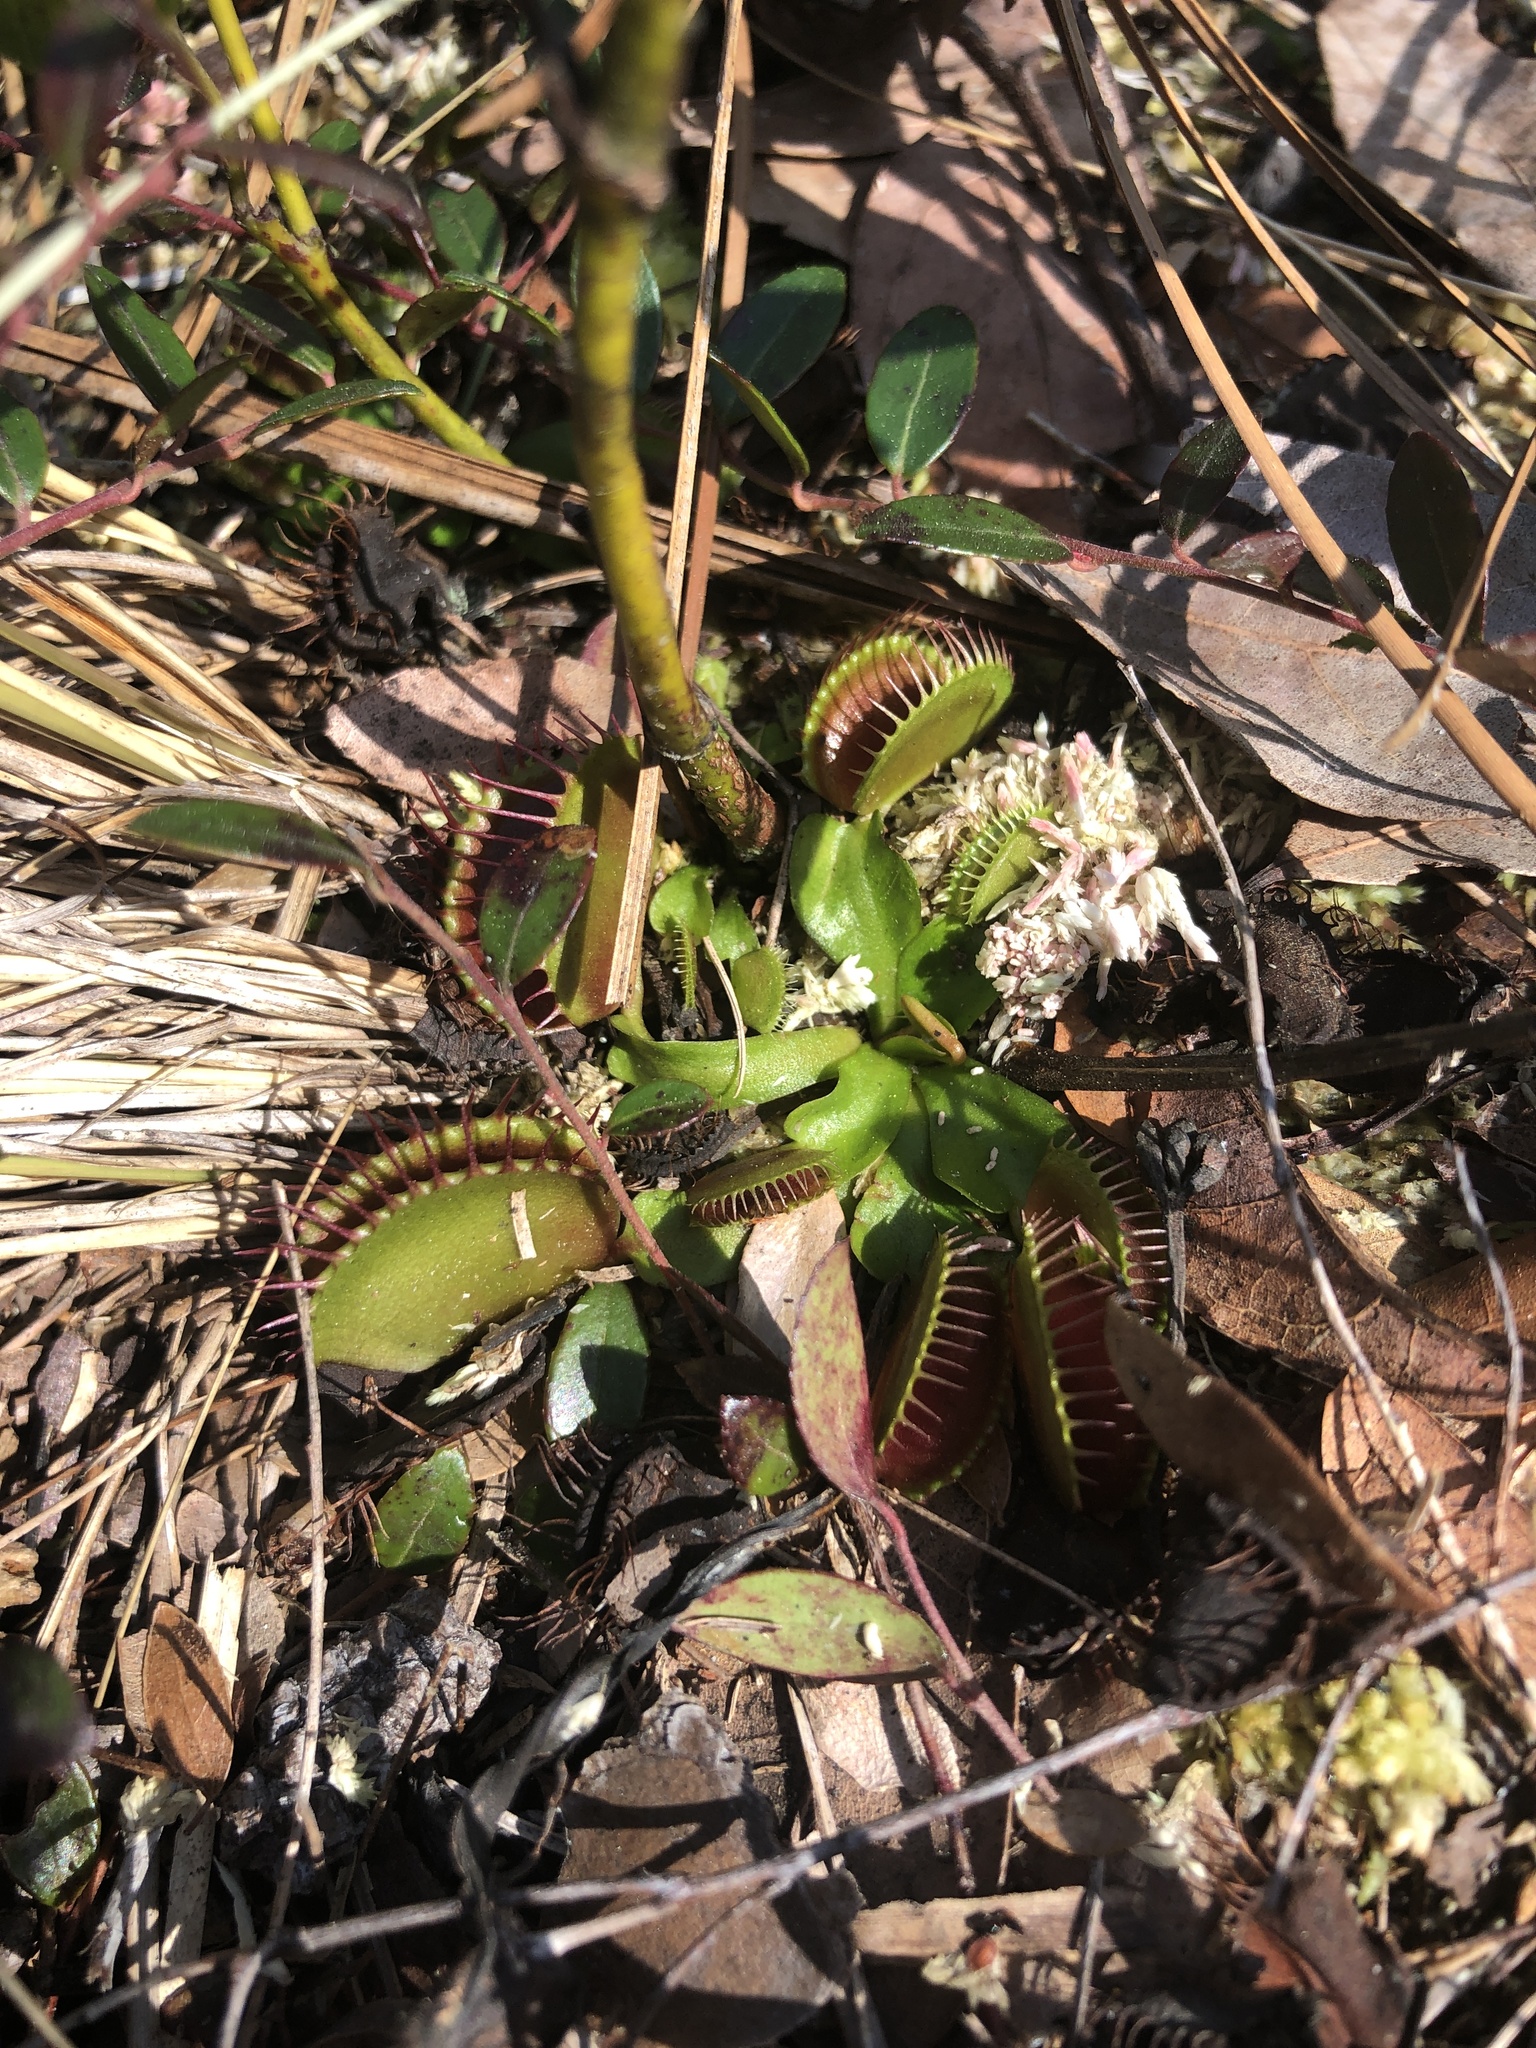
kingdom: Plantae
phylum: Tracheophyta
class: Magnoliopsida
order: Caryophyllales
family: Droseraceae
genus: Dionaea
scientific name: Dionaea muscipula
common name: Venus flytrap
